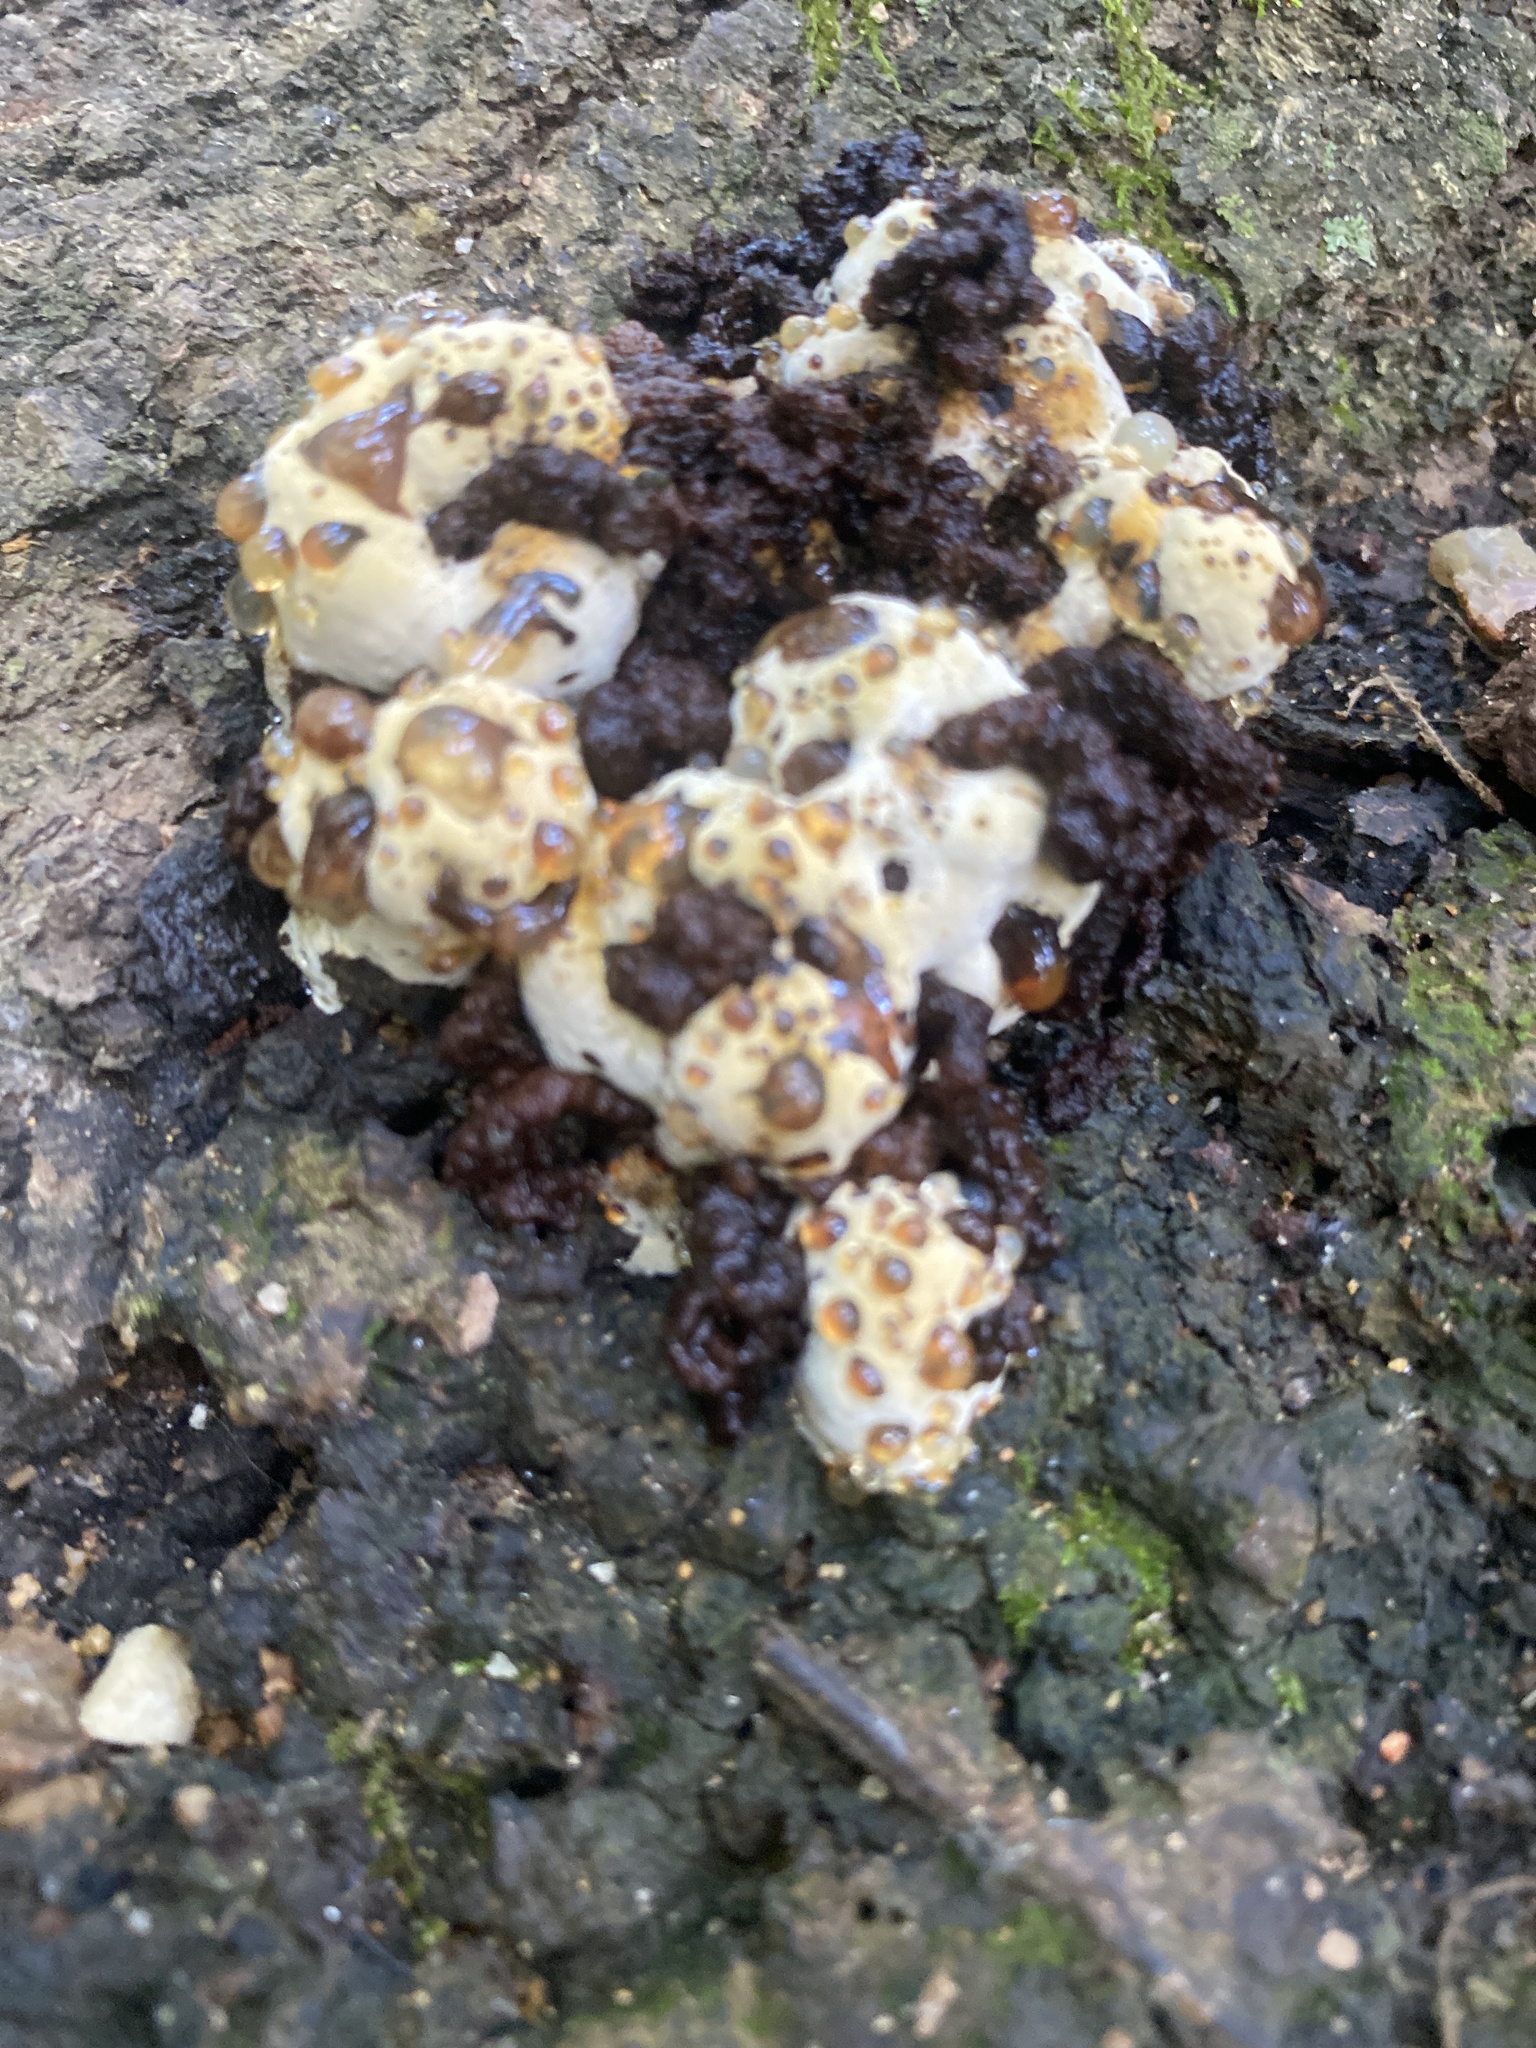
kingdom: Fungi
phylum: Basidiomycota
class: Agaricomycetes
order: Hymenochaetales
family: Hymenochaetaceae
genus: Pseudoinonotus
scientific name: Pseudoinonotus dryadeus
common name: Oak bracket
